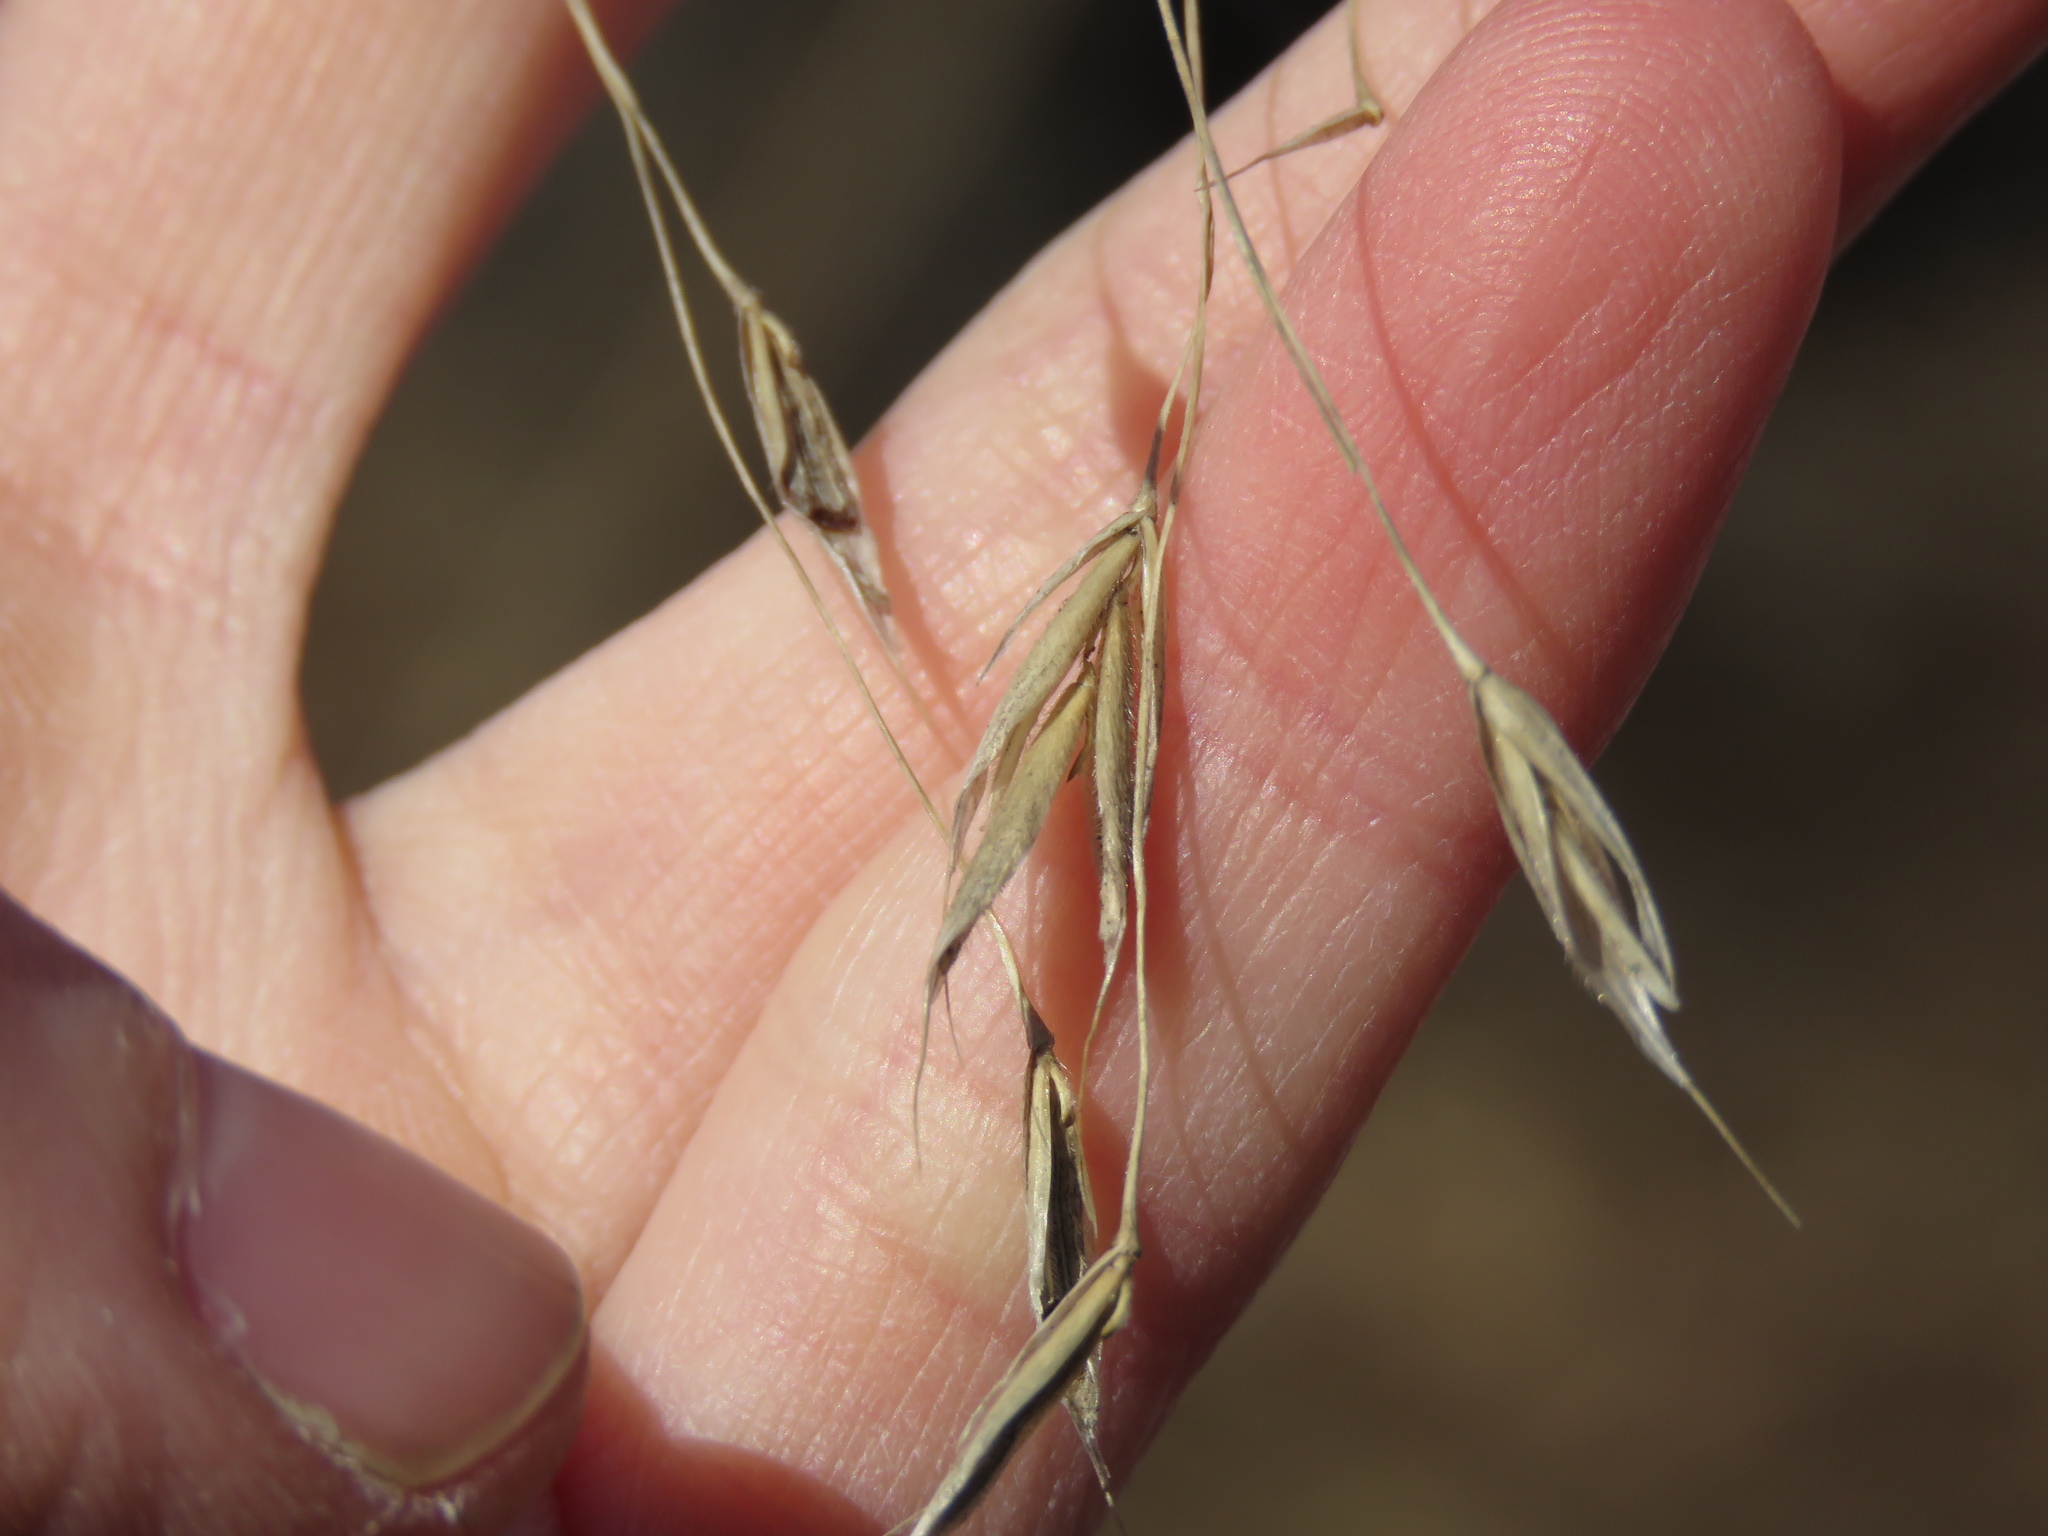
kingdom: Plantae
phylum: Tracheophyta
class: Liliopsida
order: Poales
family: Poaceae
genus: Bromus
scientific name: Bromus pubescens
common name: Hairy wood brome grass
